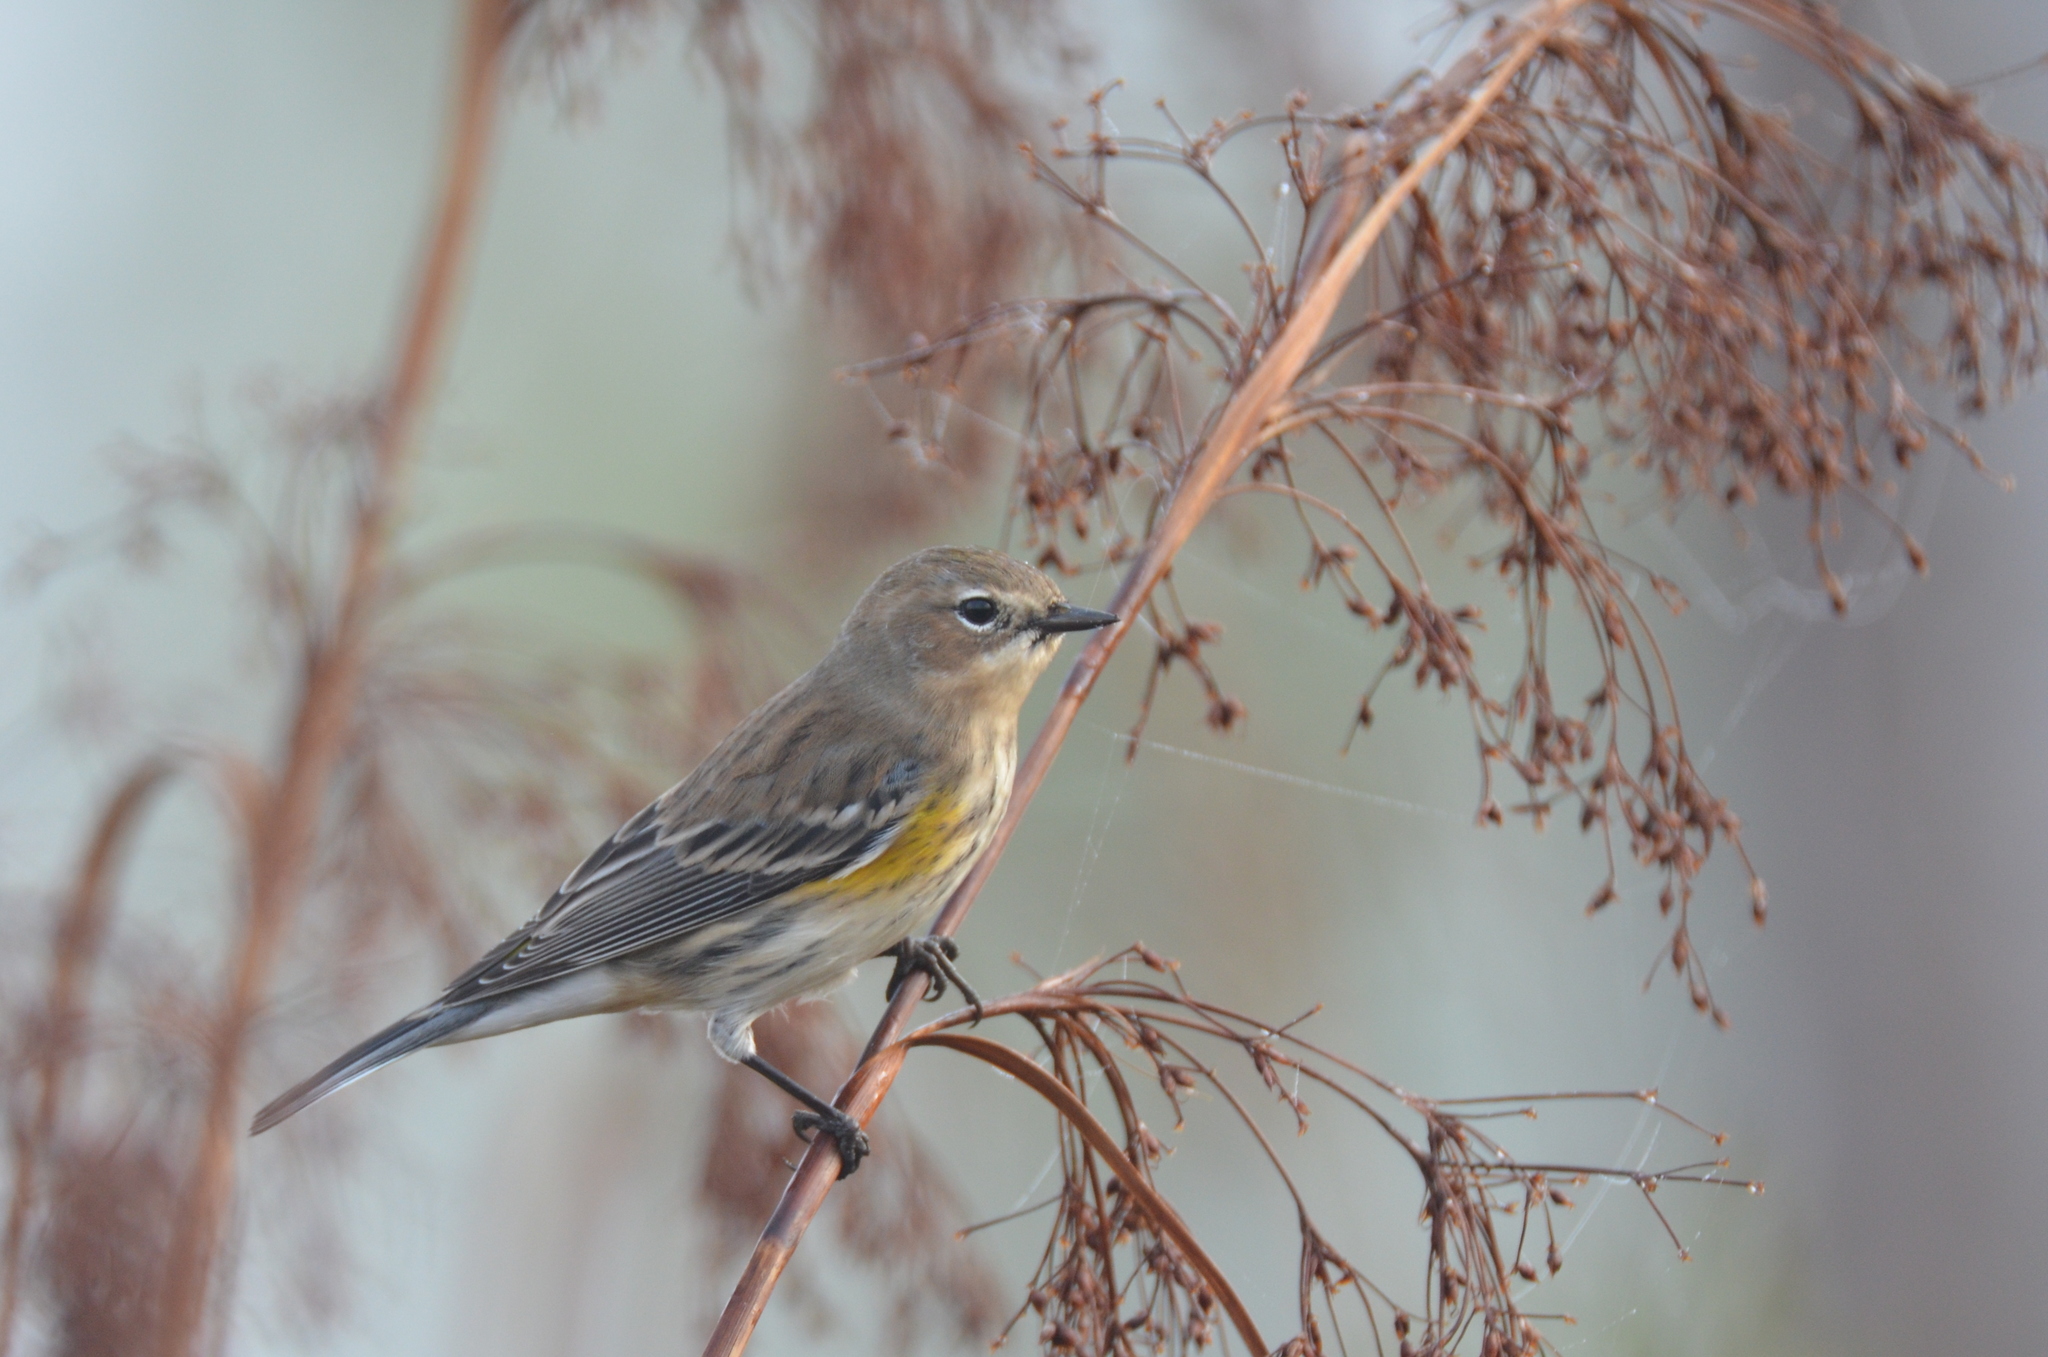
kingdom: Animalia
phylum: Chordata
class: Aves
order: Passeriformes
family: Parulidae
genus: Setophaga
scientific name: Setophaga coronata
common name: Myrtle warbler
